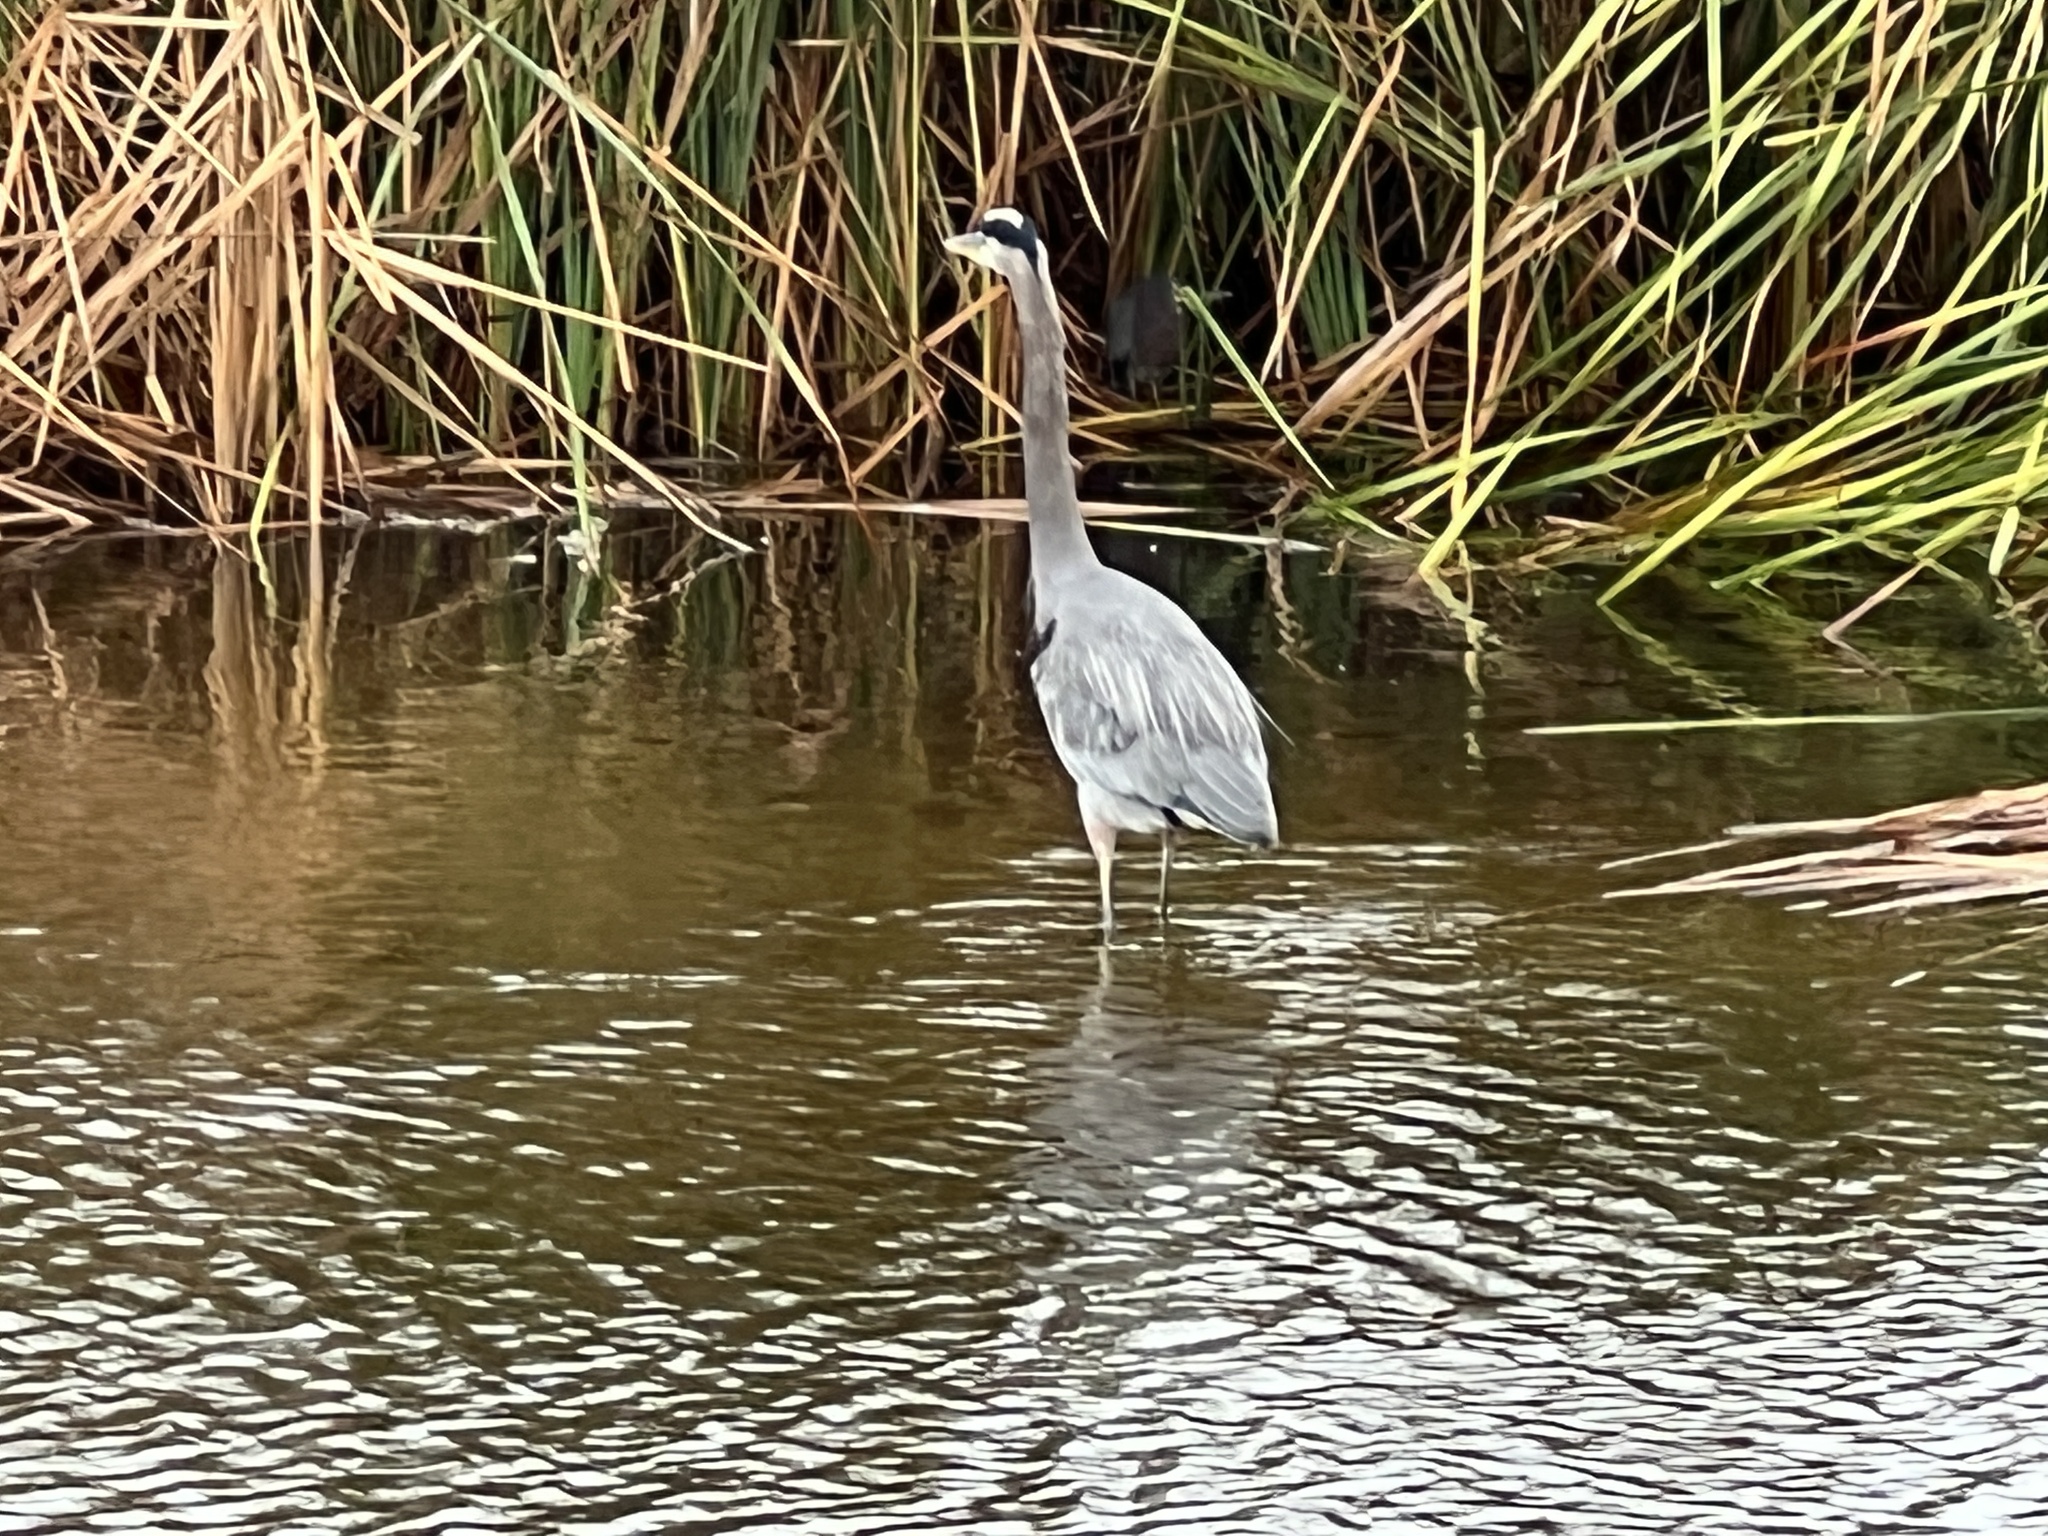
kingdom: Animalia
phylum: Chordata
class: Aves
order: Pelecaniformes
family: Ardeidae
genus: Ardea
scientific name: Ardea herodias
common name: Great blue heron
